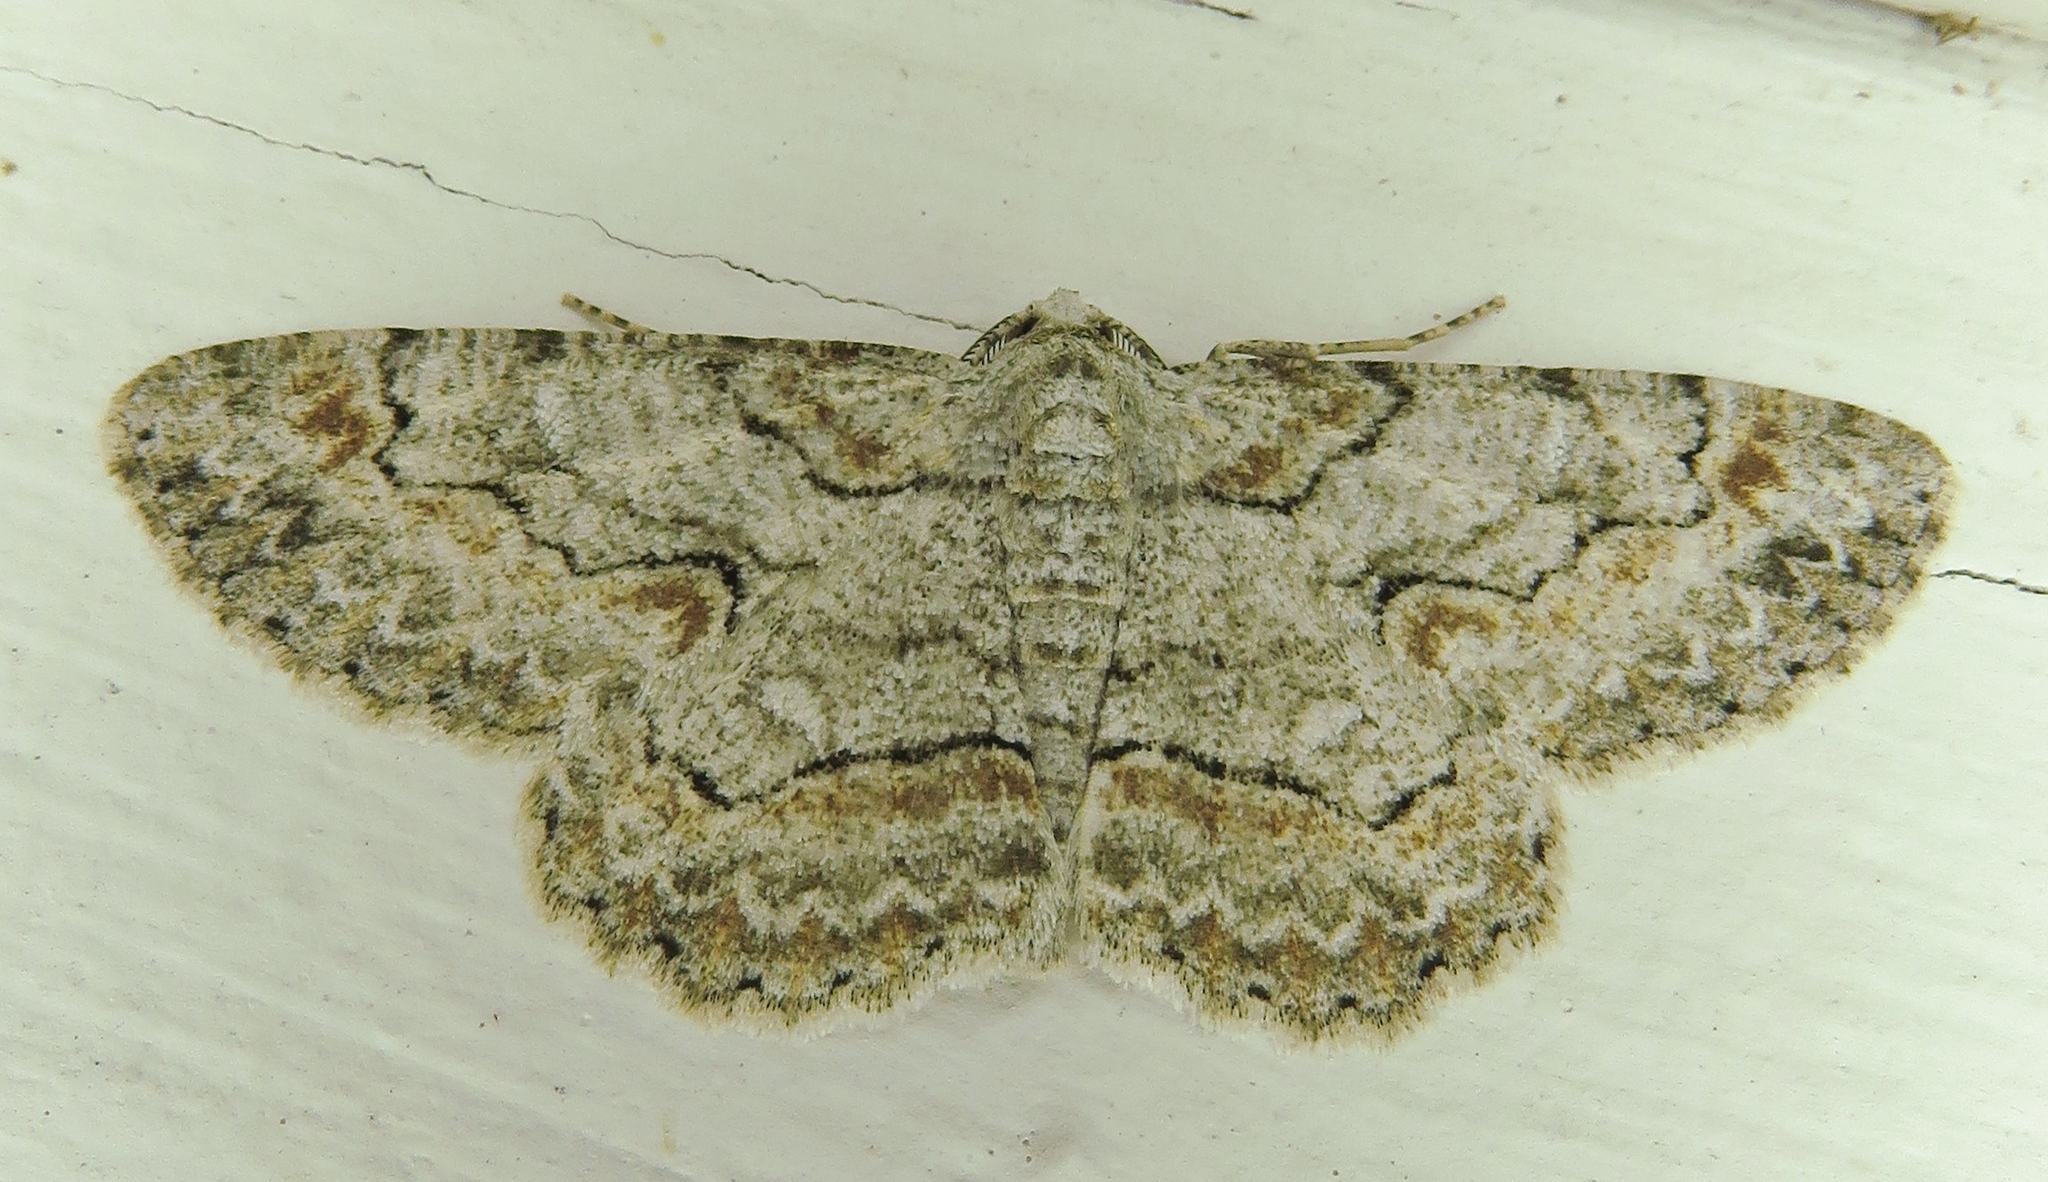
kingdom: Animalia
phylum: Arthropoda
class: Insecta
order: Lepidoptera
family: Geometridae
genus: Iridopsis
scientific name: Iridopsis defectaria
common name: Brown-shaded gray
